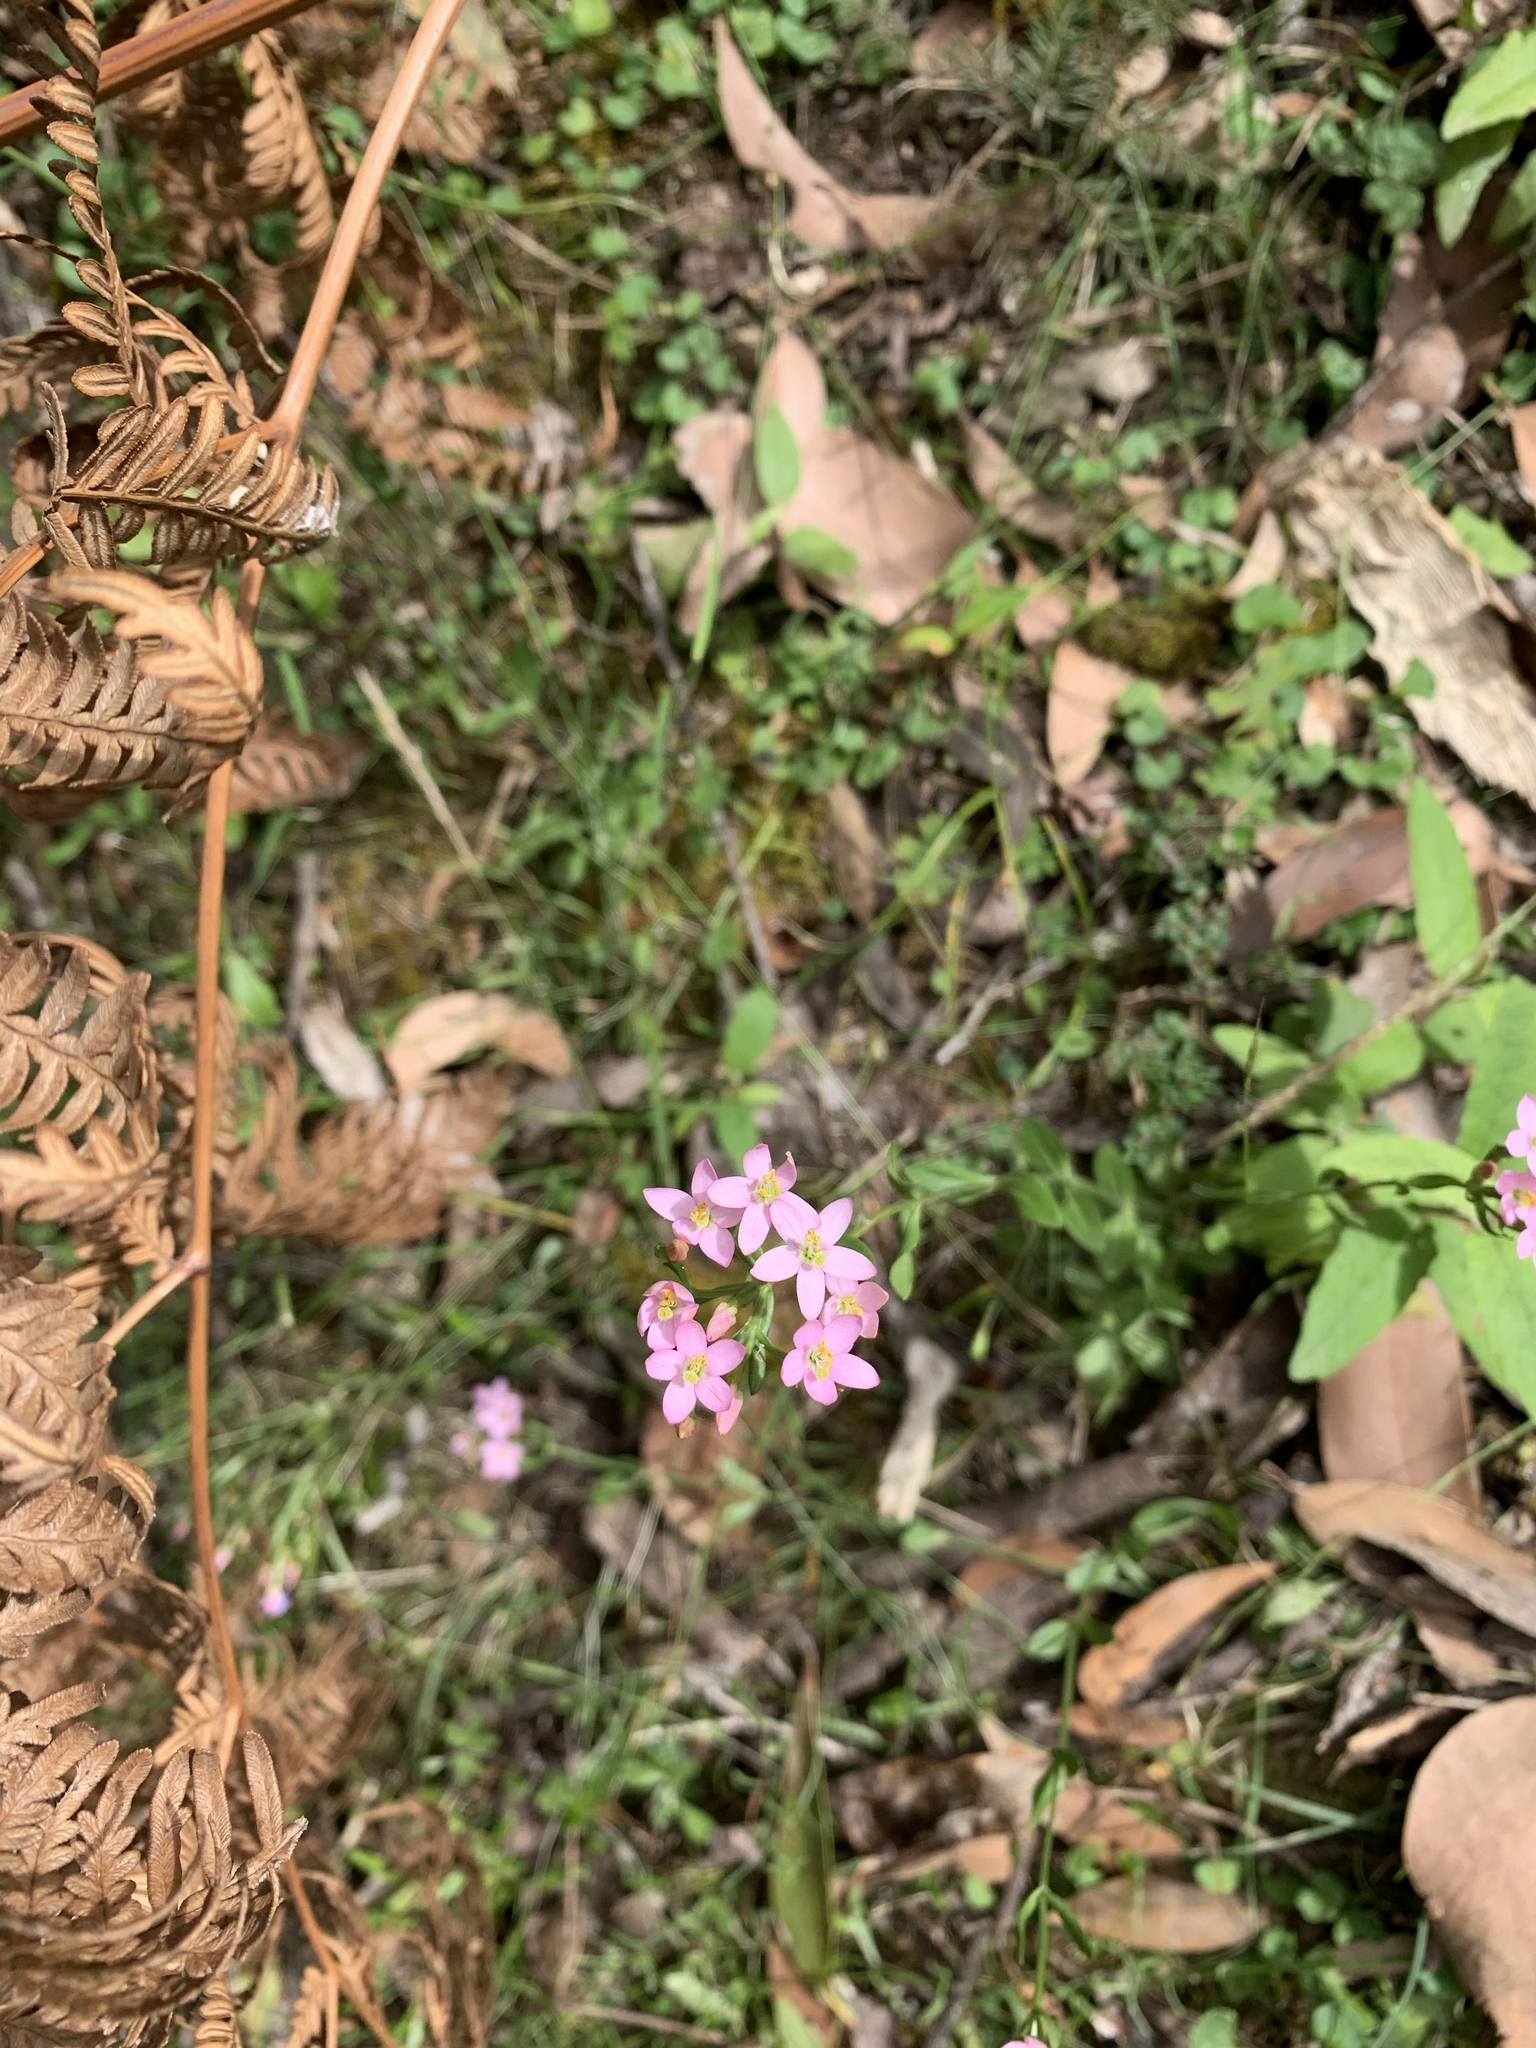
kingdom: Plantae
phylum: Tracheophyta
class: Magnoliopsida
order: Gentianales
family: Gentianaceae
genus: Centaurium
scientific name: Centaurium erythraea
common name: Common centaury
